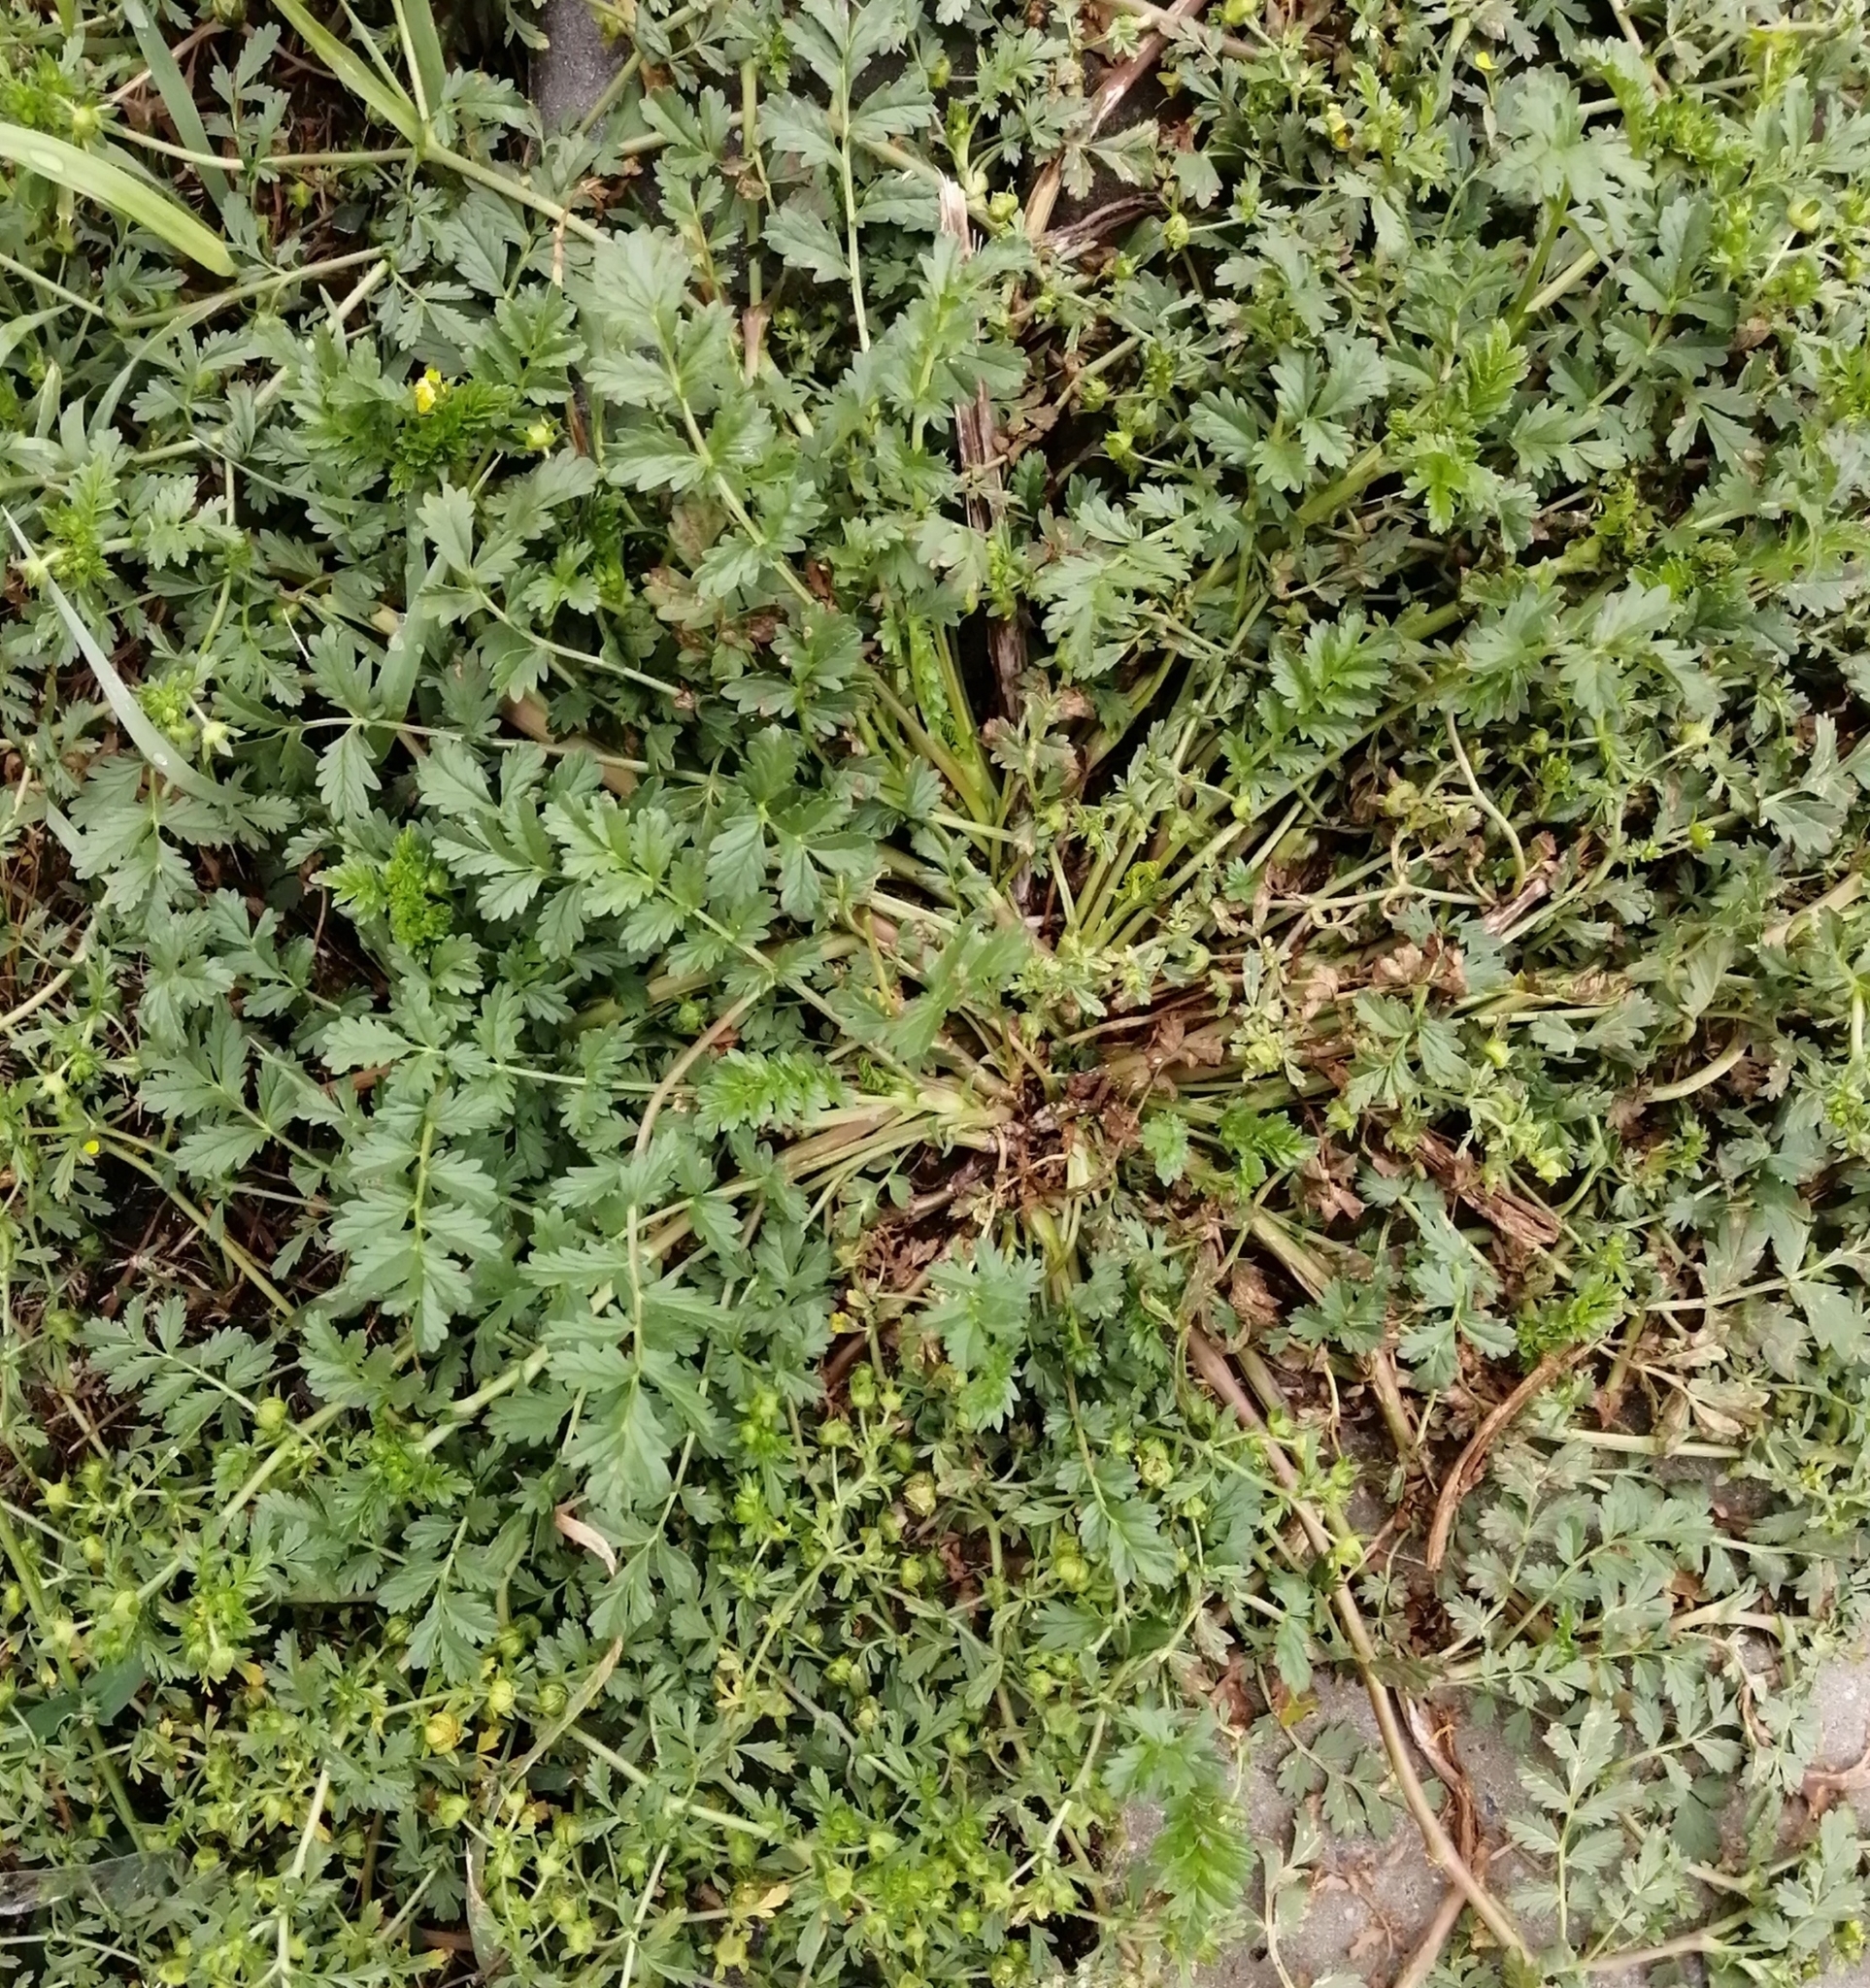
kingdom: Plantae
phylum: Tracheophyta
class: Magnoliopsida
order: Rosales
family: Rosaceae
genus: Potentilla
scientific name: Potentilla supina
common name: Prostrate cinquefoil
